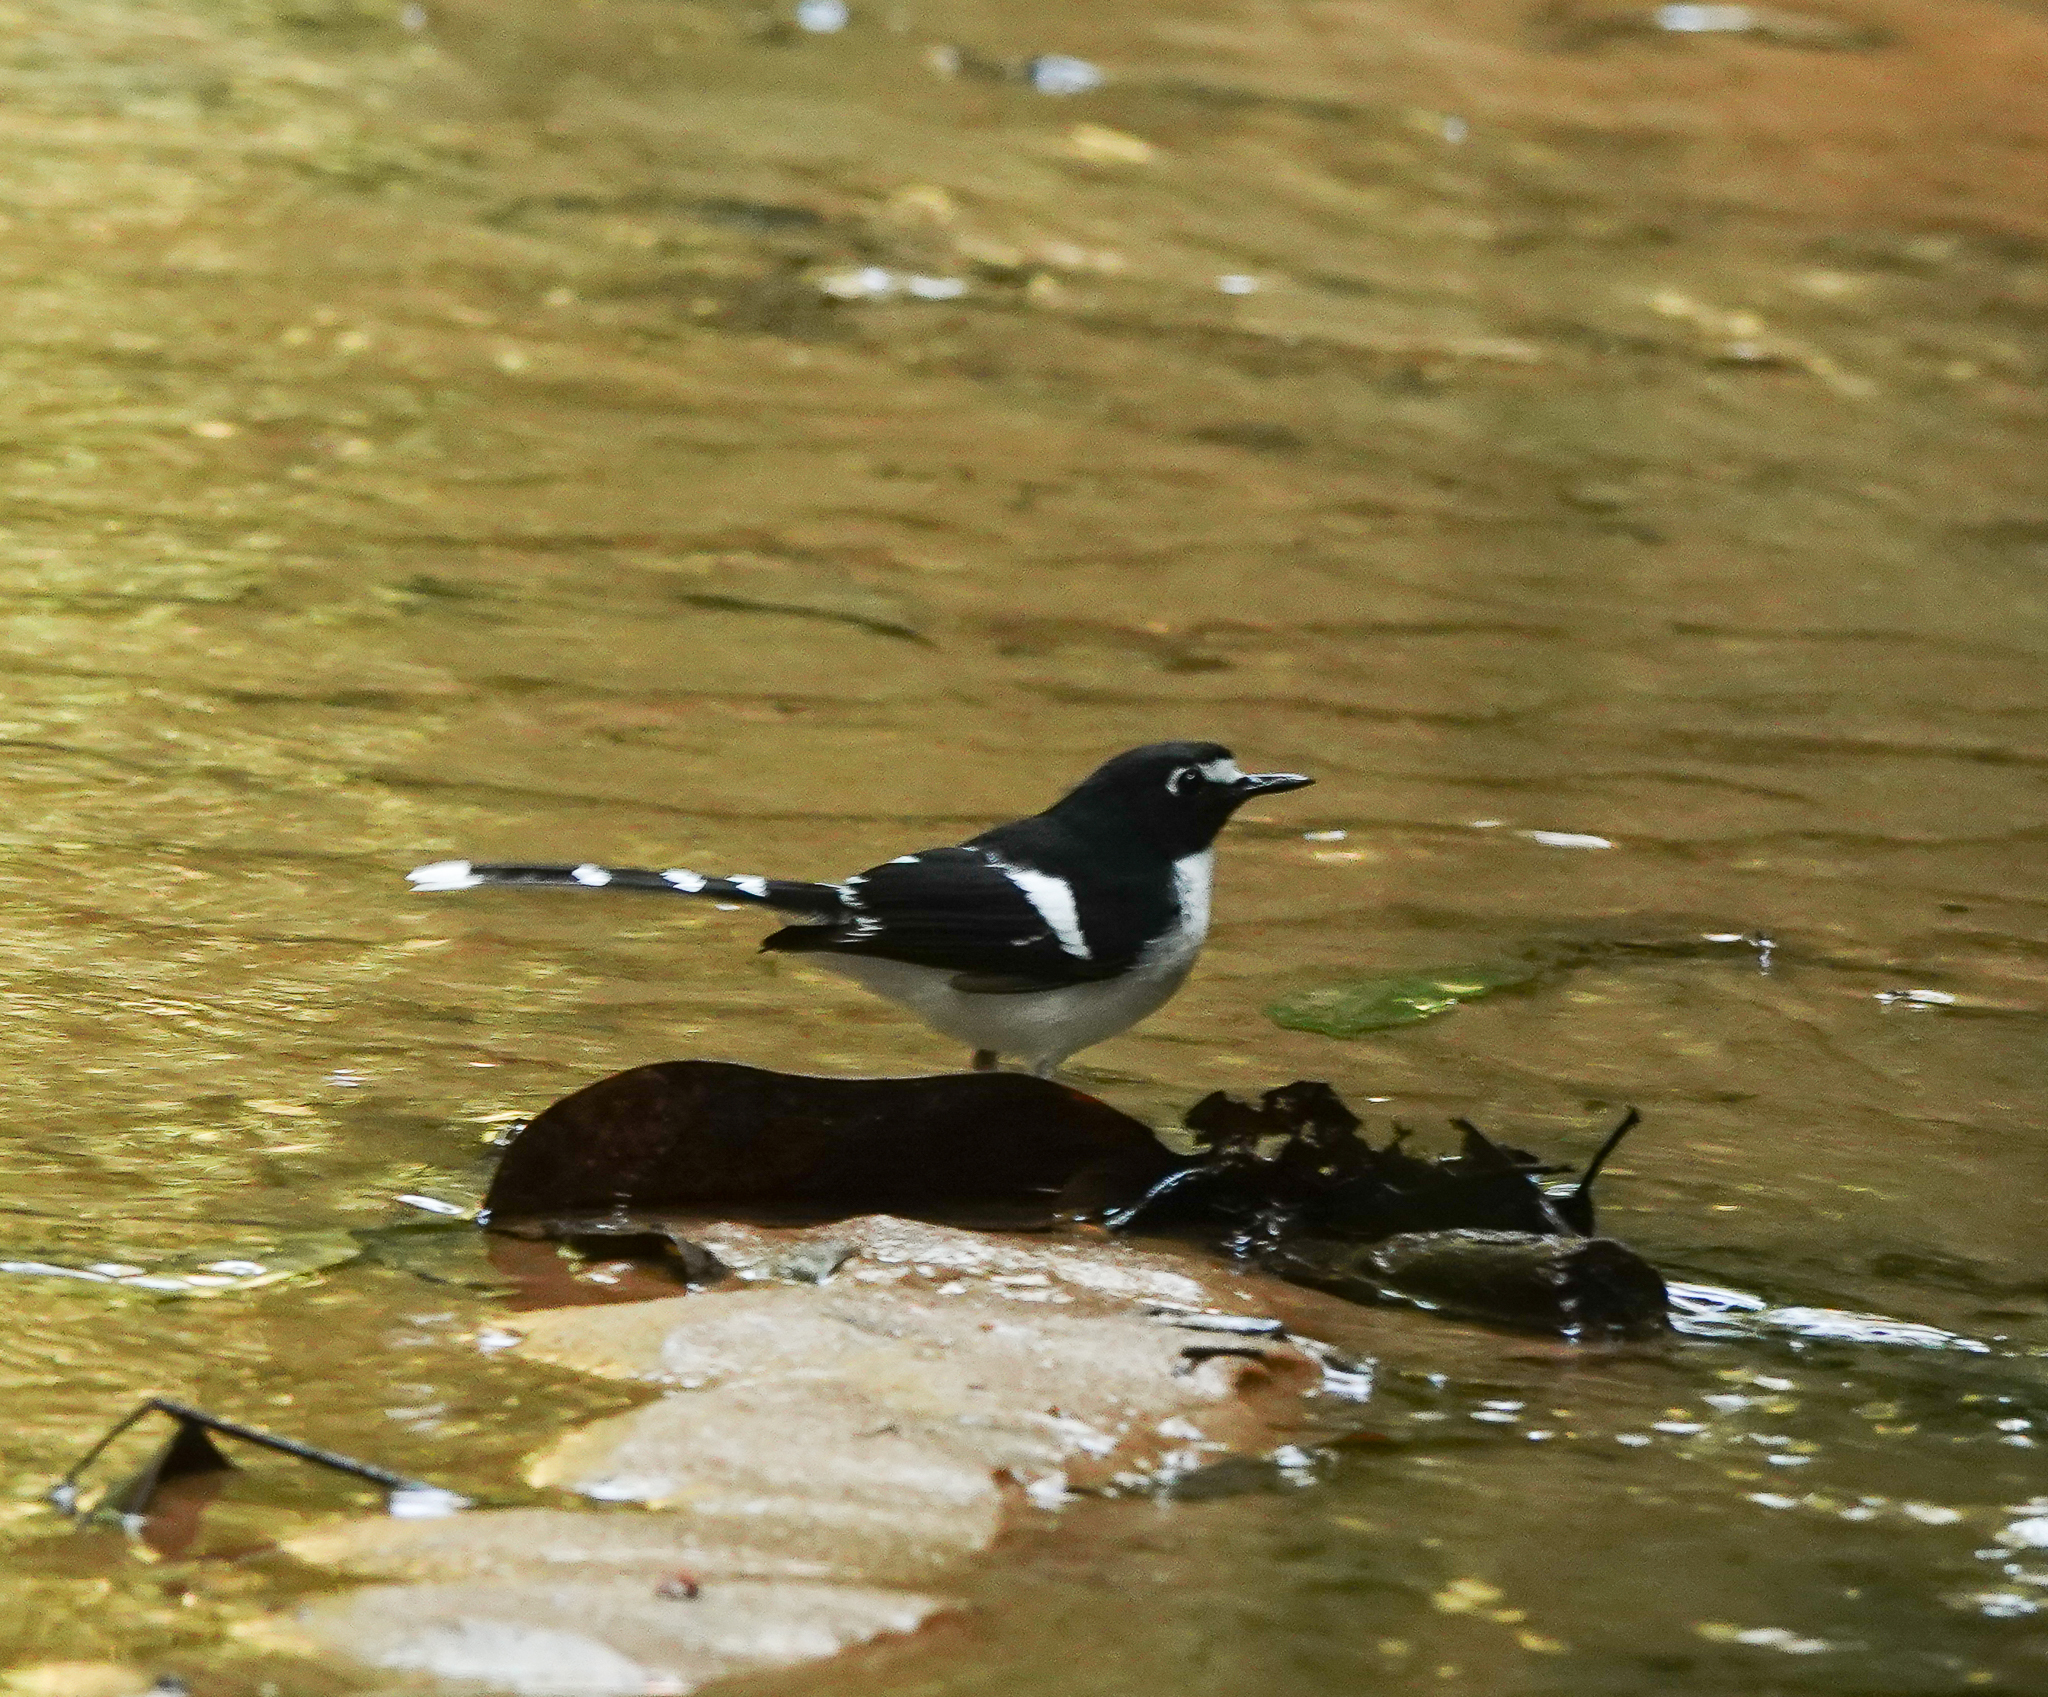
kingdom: Animalia
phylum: Chordata
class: Aves
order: Passeriformes
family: Muscicapidae
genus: Enicurus
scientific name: Enicurus immaculatus
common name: Black-backed forktail
